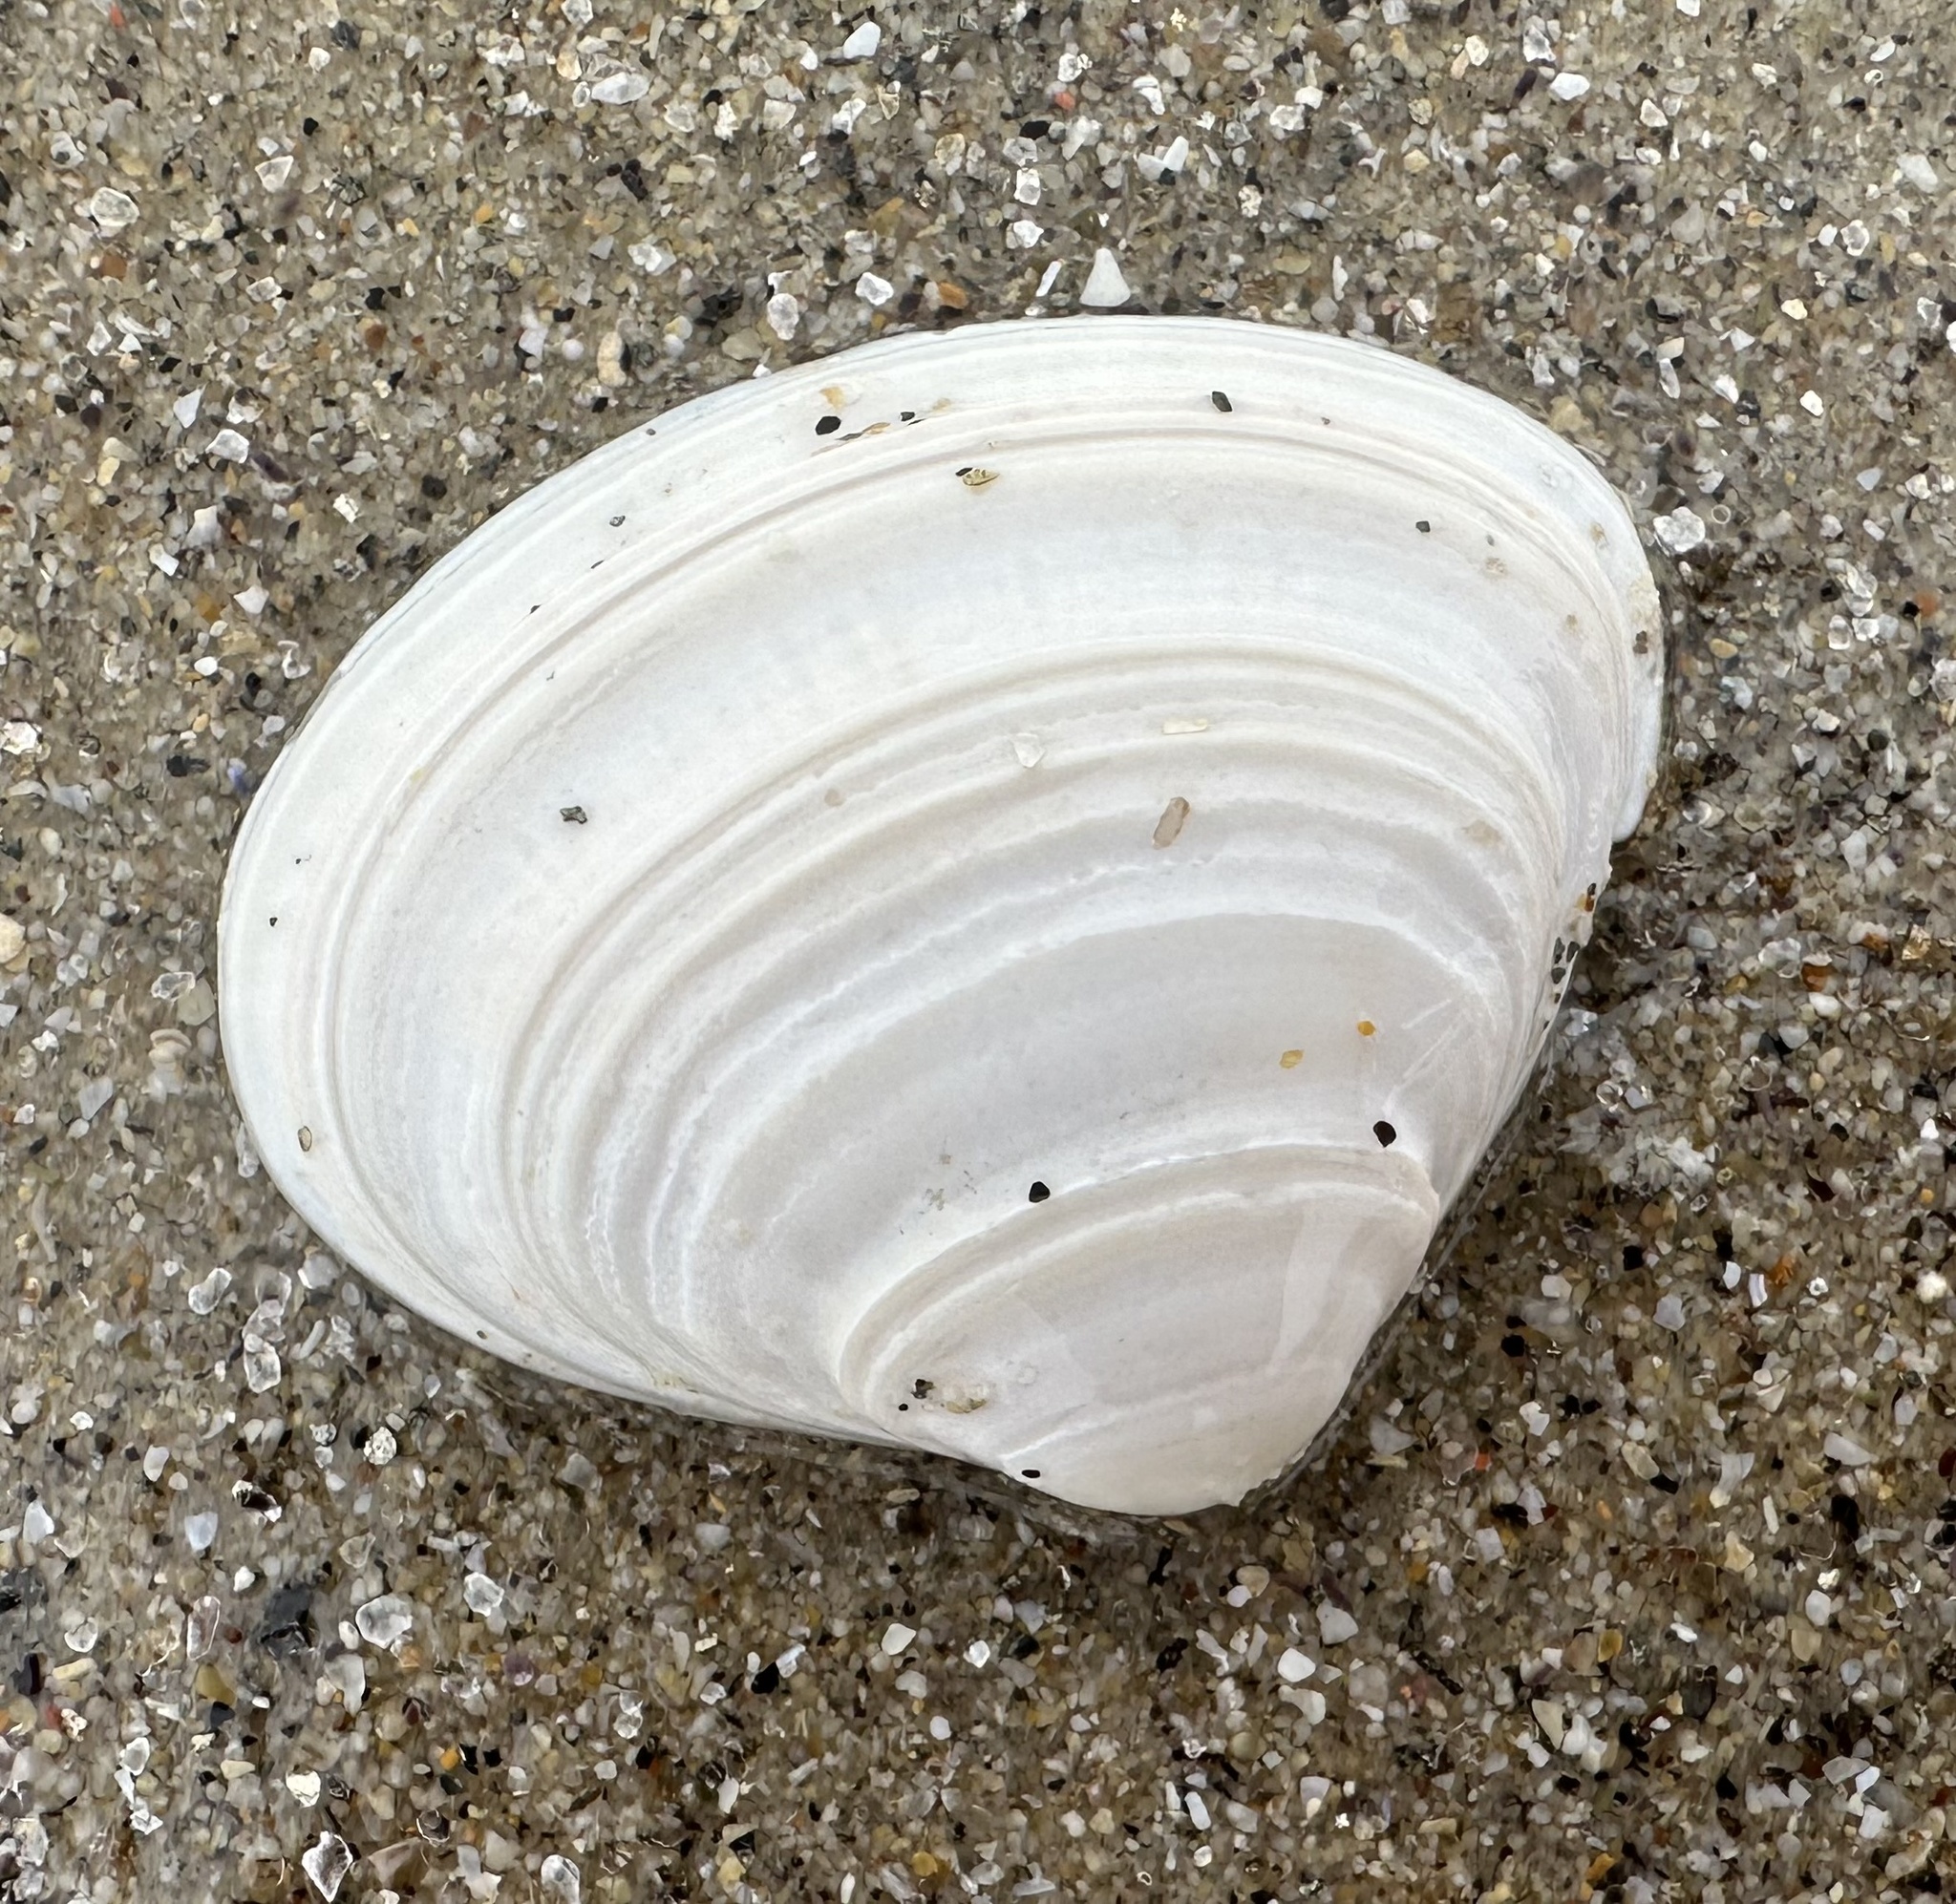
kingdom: Animalia
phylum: Mollusca
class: Bivalvia
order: Venerida
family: Mactridae
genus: Spisula
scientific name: Spisula solida
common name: Thick trough shell
